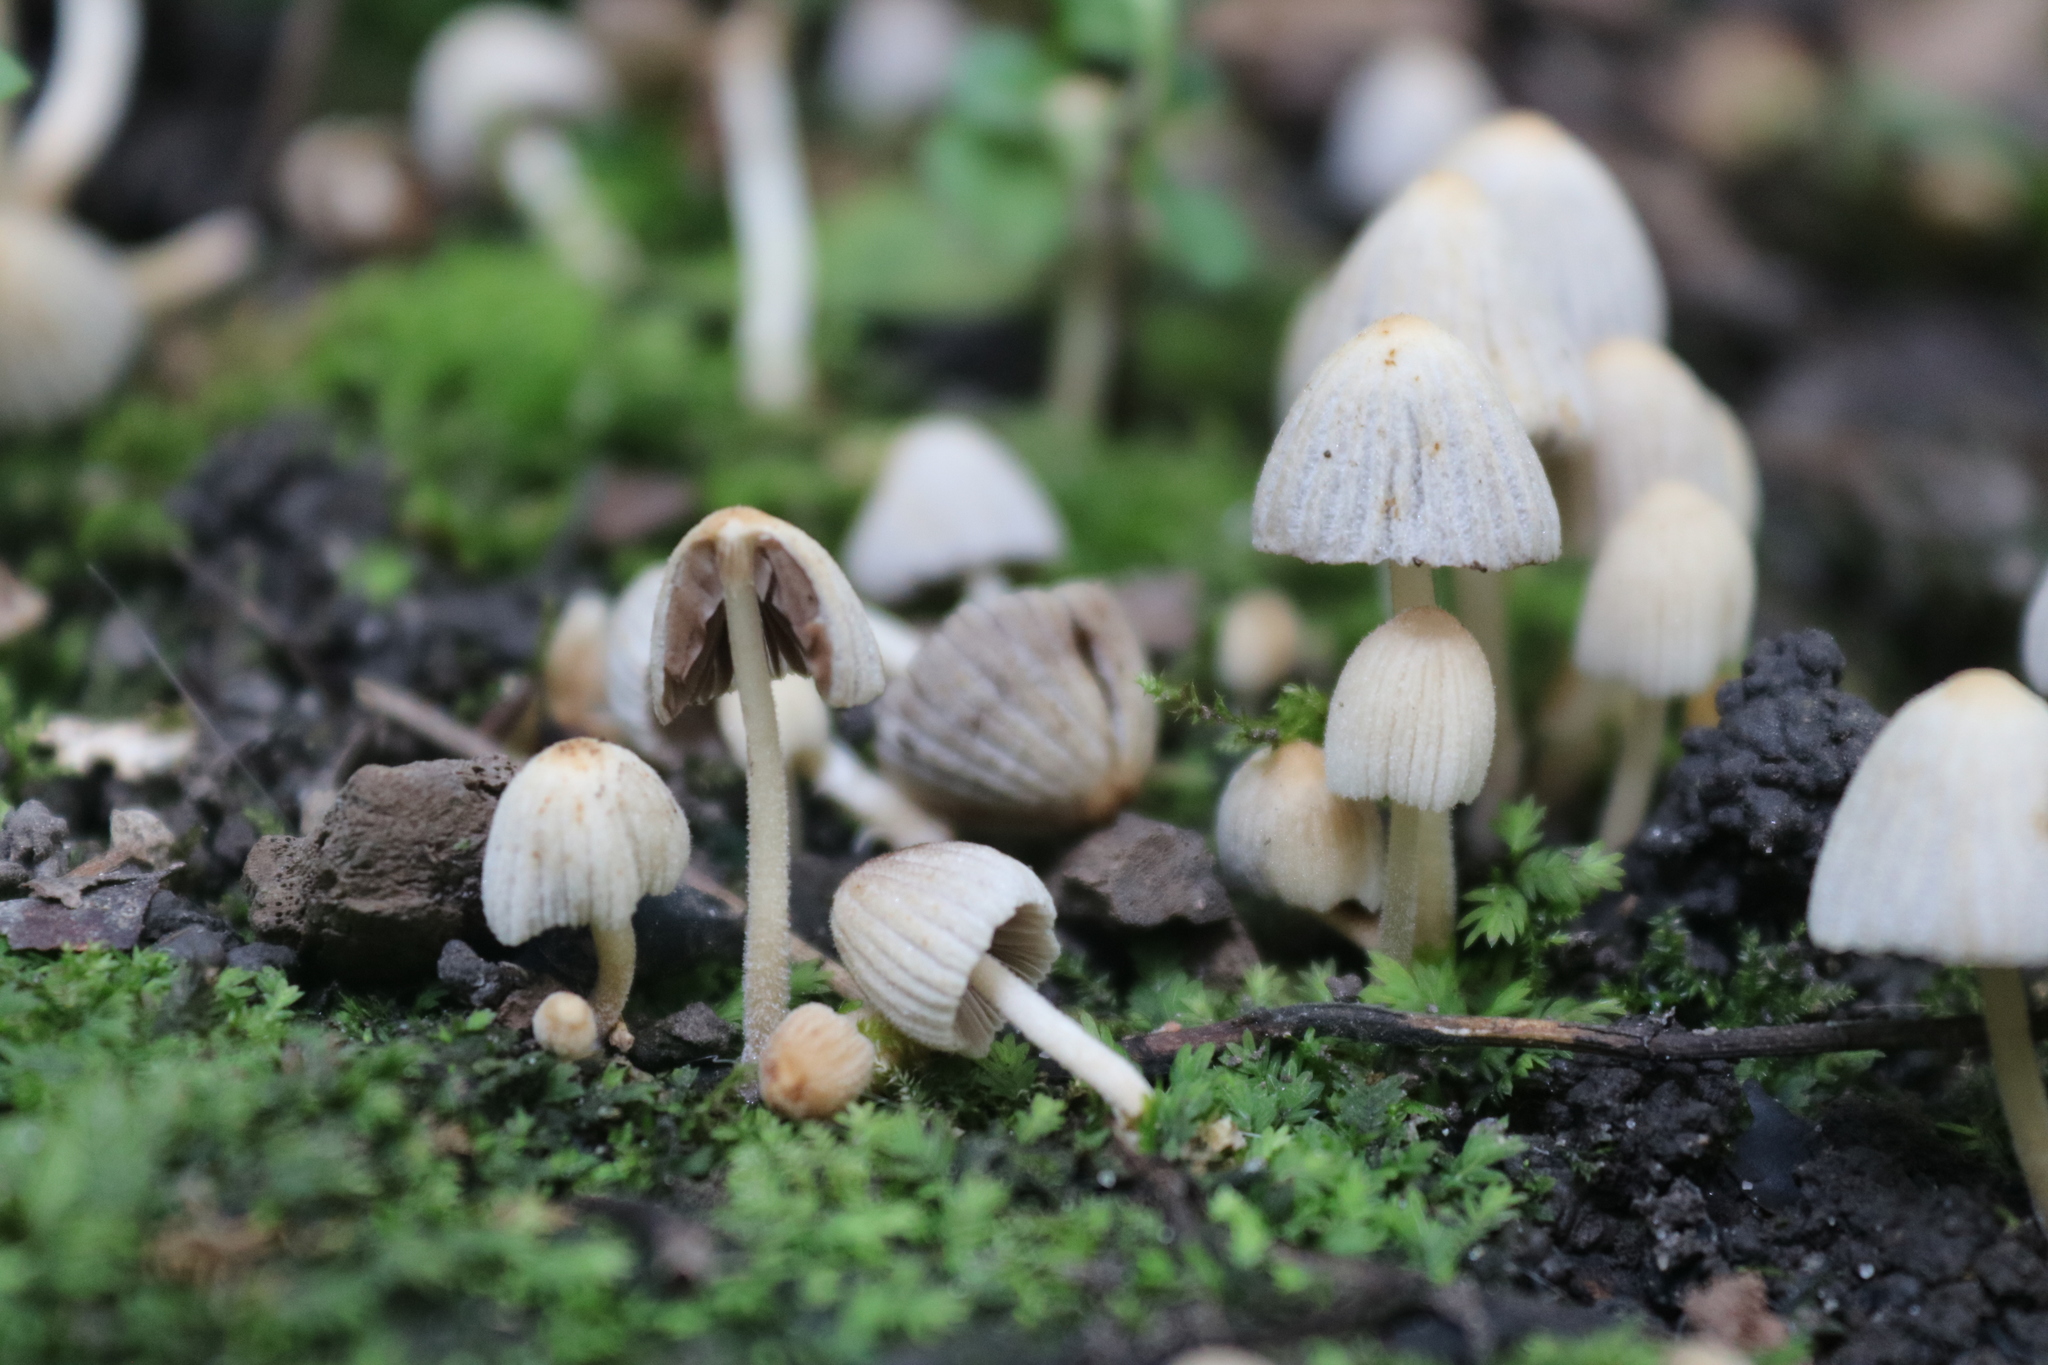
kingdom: Fungi
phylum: Basidiomycota
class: Agaricomycetes
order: Agaricales
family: Psathyrellaceae
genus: Coprinellus
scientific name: Coprinellus disseminatus
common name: Fairies' bonnets
